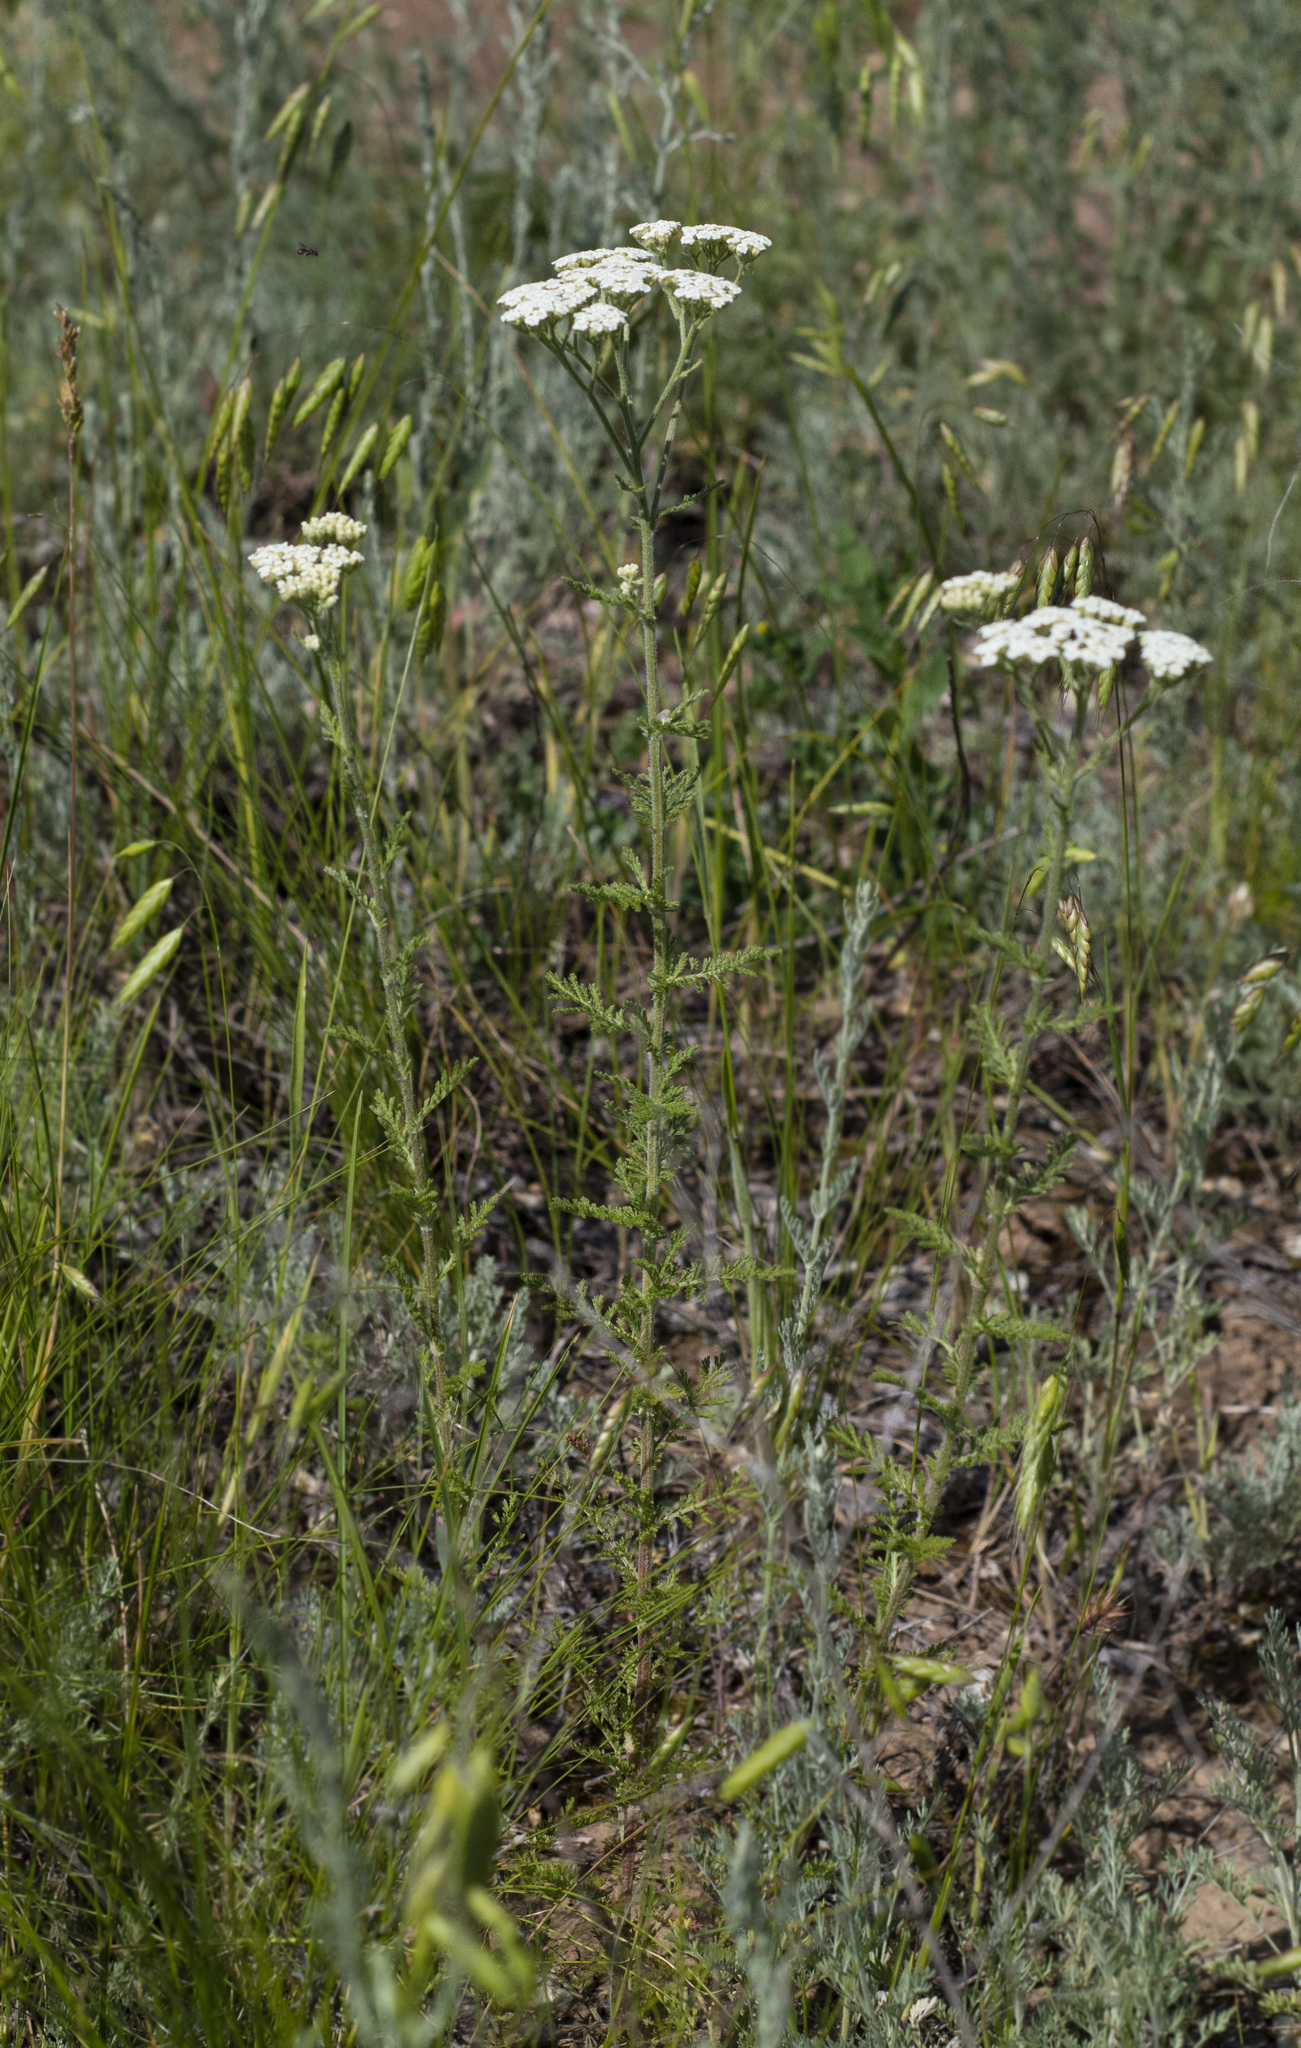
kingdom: Plantae
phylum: Tracheophyta
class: Magnoliopsida
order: Asterales
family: Asteraceae
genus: Achillea
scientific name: Achillea nobilis
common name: Noble yarrow
